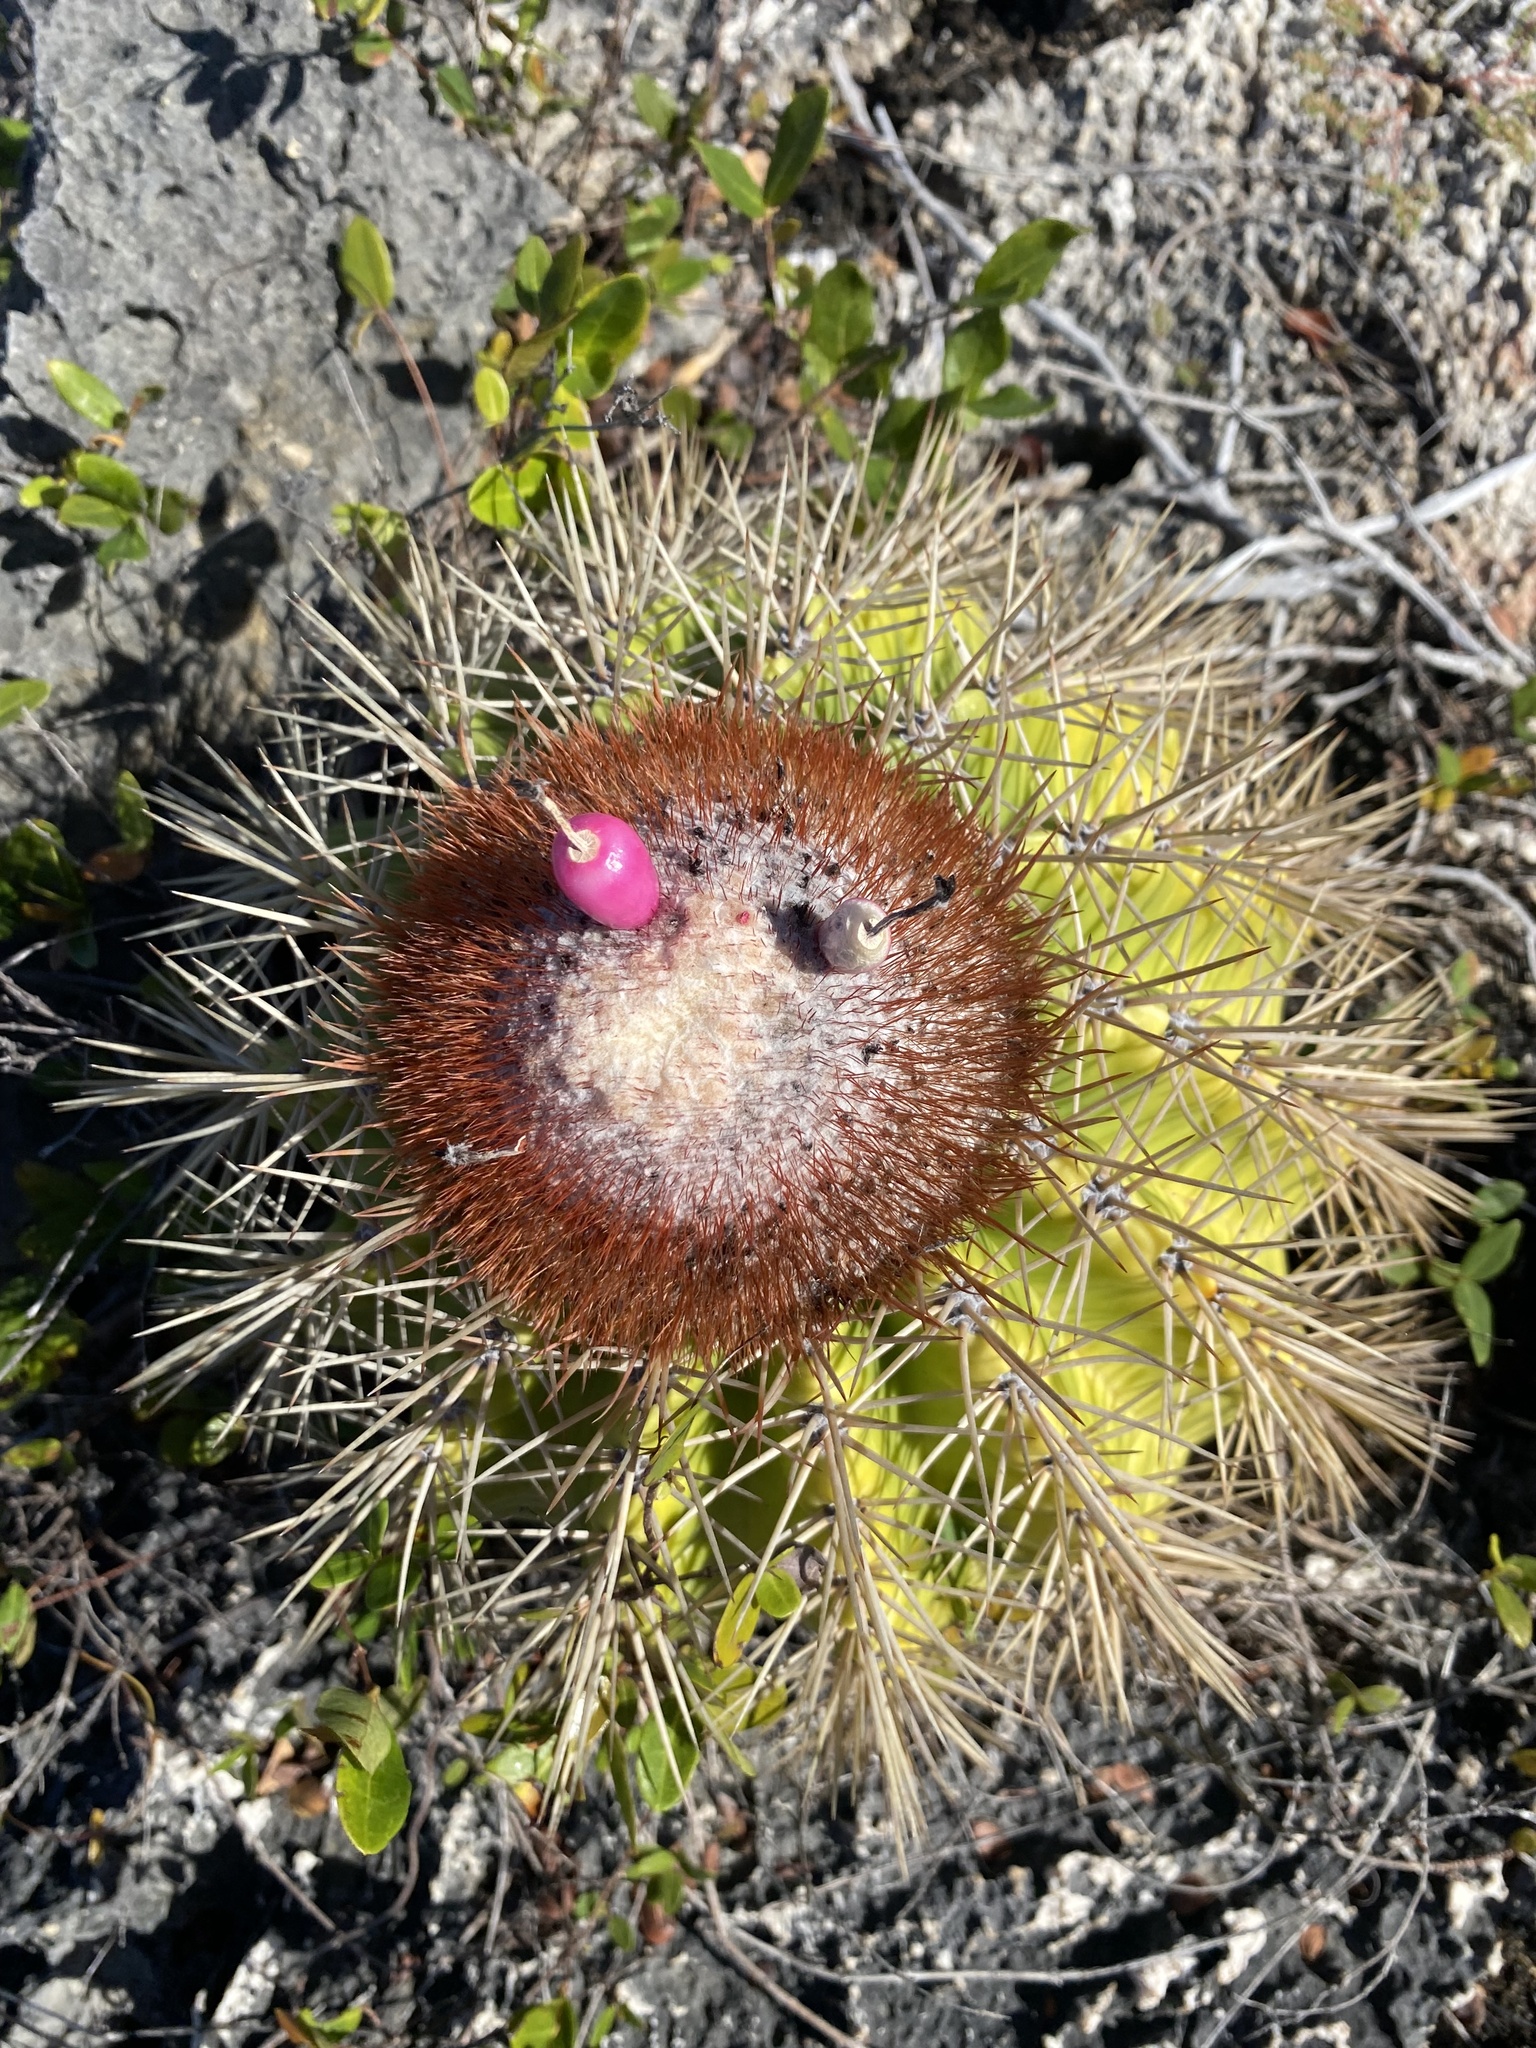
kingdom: Plantae
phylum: Tracheophyta
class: Magnoliopsida
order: Caryophyllales
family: Cactaceae
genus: Melocactus
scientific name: Melocactus intortus
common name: Barrel cactus
